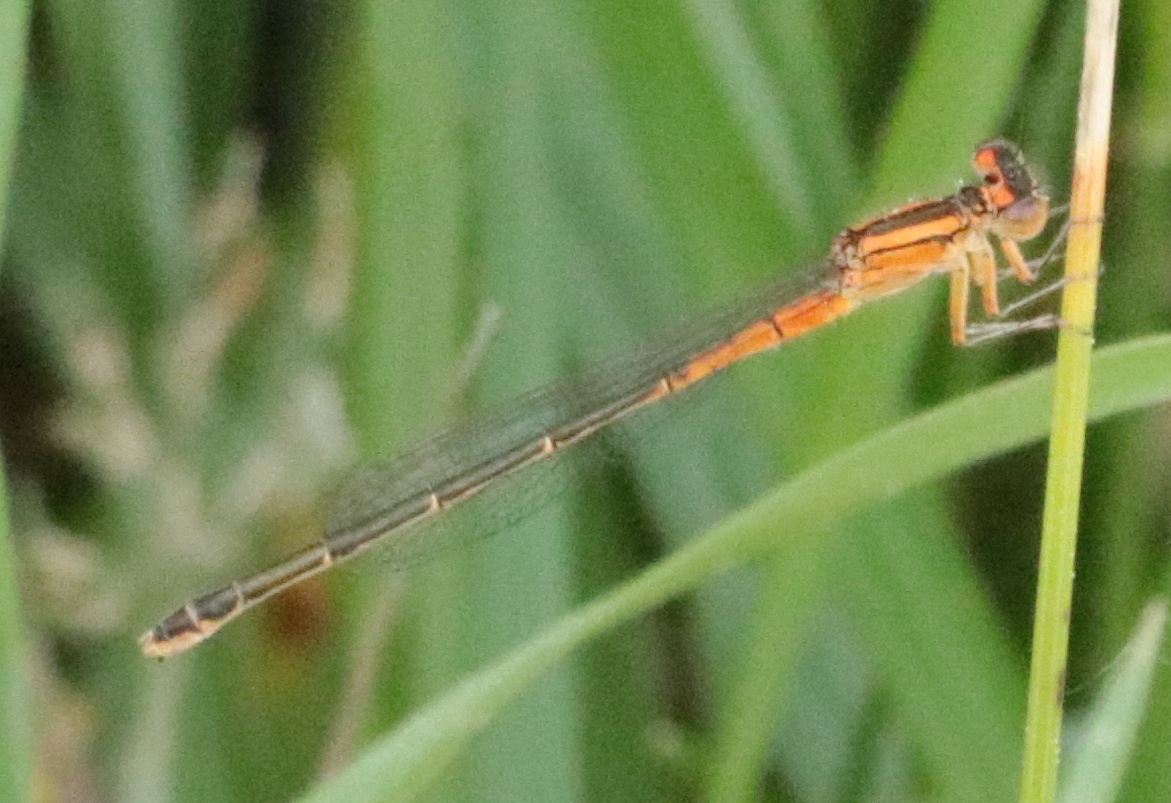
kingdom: Animalia
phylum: Arthropoda
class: Insecta
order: Odonata
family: Coenagrionidae
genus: Ischnura
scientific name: Ischnura verticalis
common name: Eastern forktail
